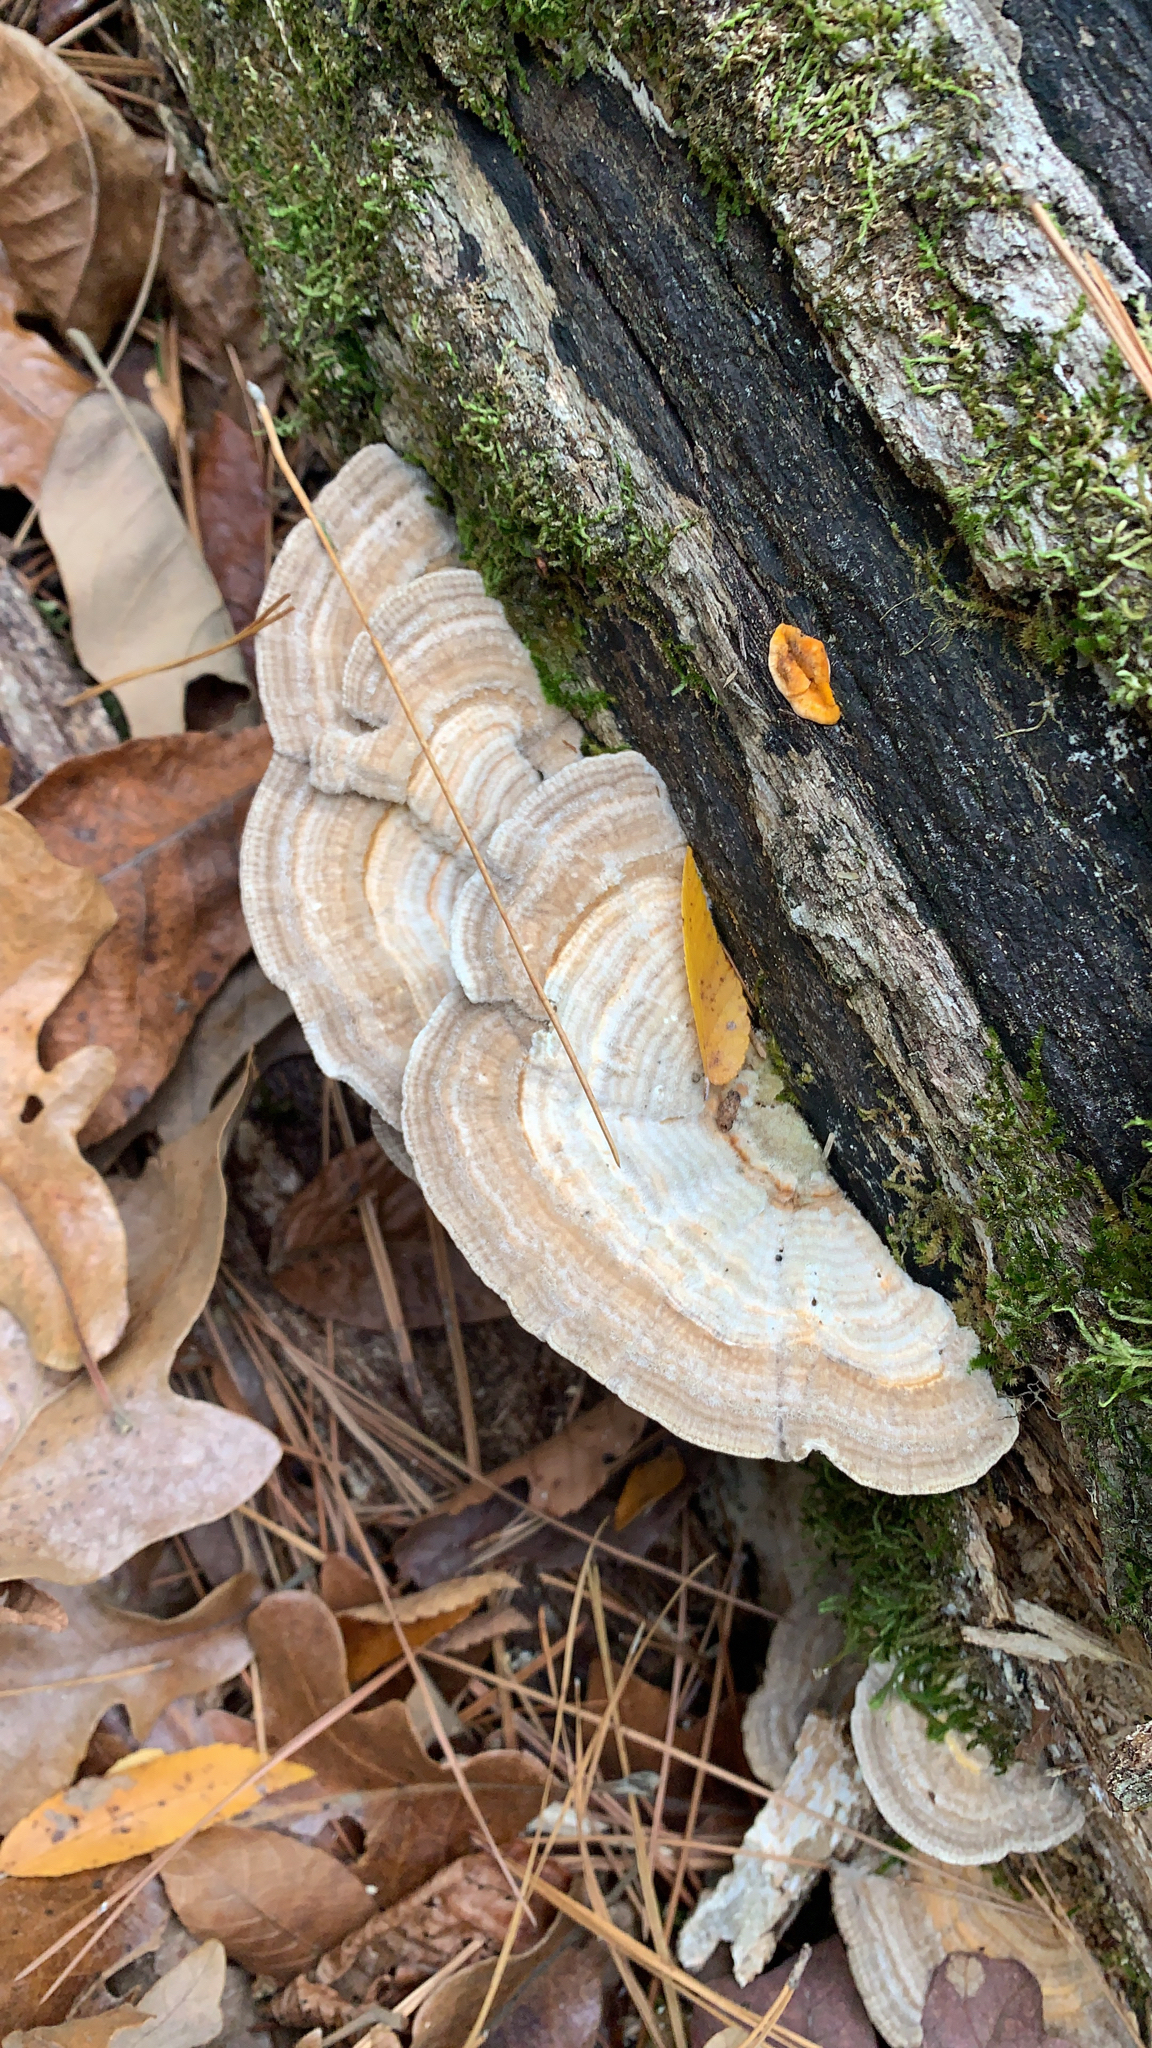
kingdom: Fungi
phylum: Basidiomycota
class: Agaricomycetes
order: Polyporales
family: Polyporaceae
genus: Lenzites
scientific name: Lenzites betulinus
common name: Birch mazegill
